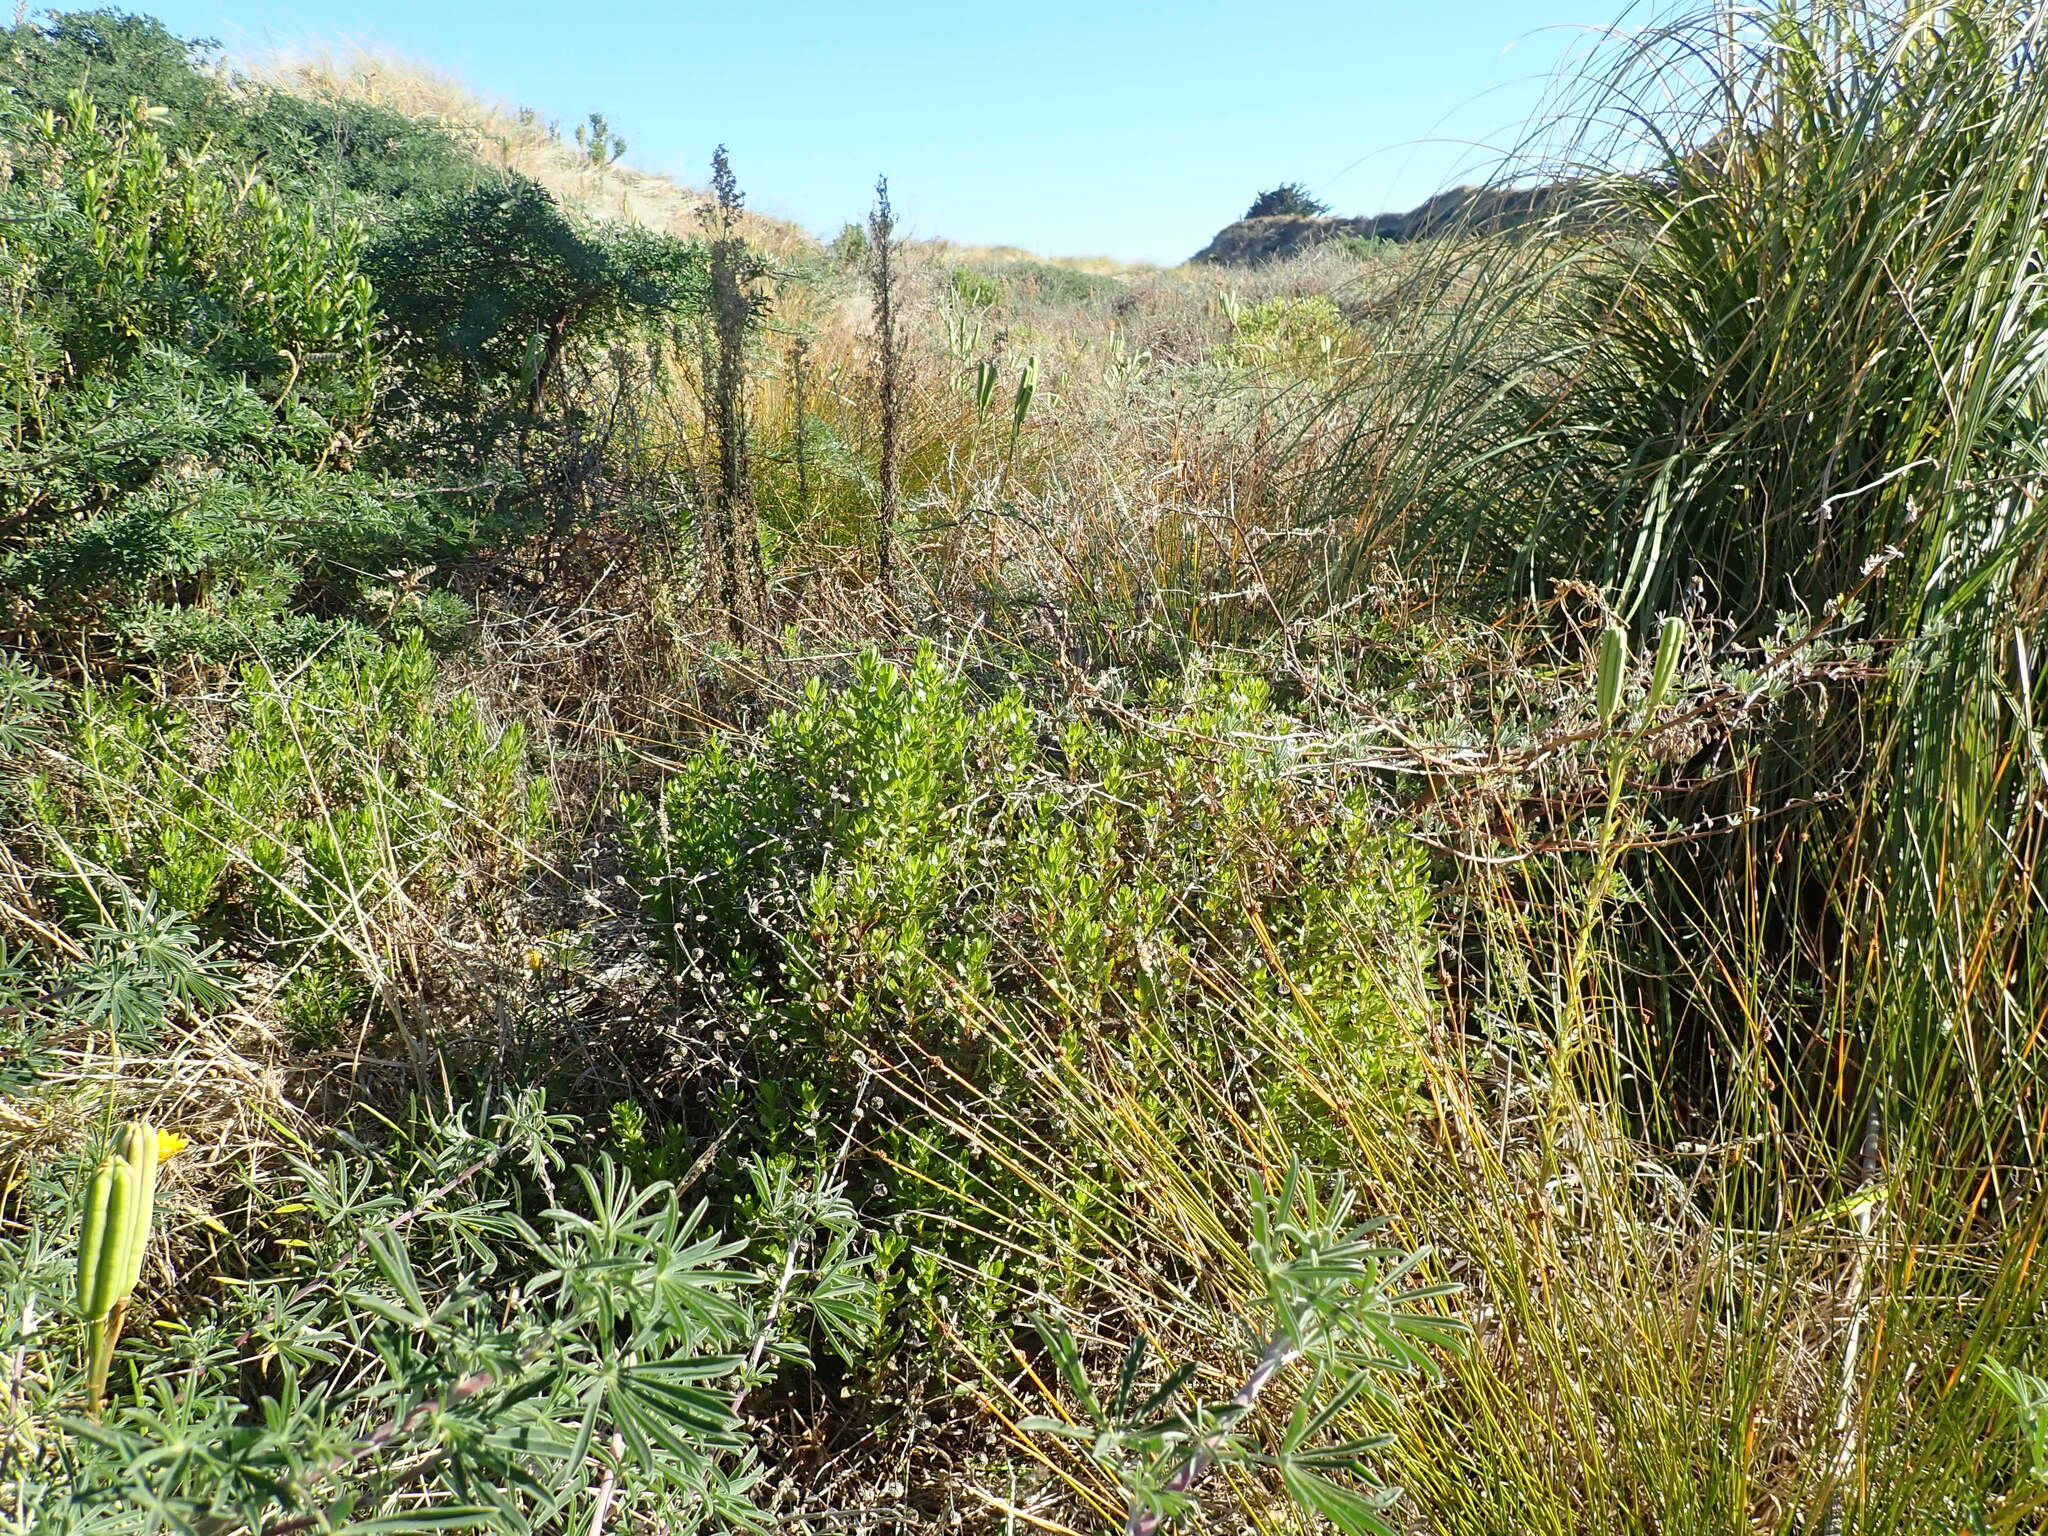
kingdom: Plantae
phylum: Tracheophyta
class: Magnoliopsida
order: Asterales
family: Asteraceae
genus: Senecio
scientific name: Senecio glastifolius
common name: Woad-leaved ragwort
